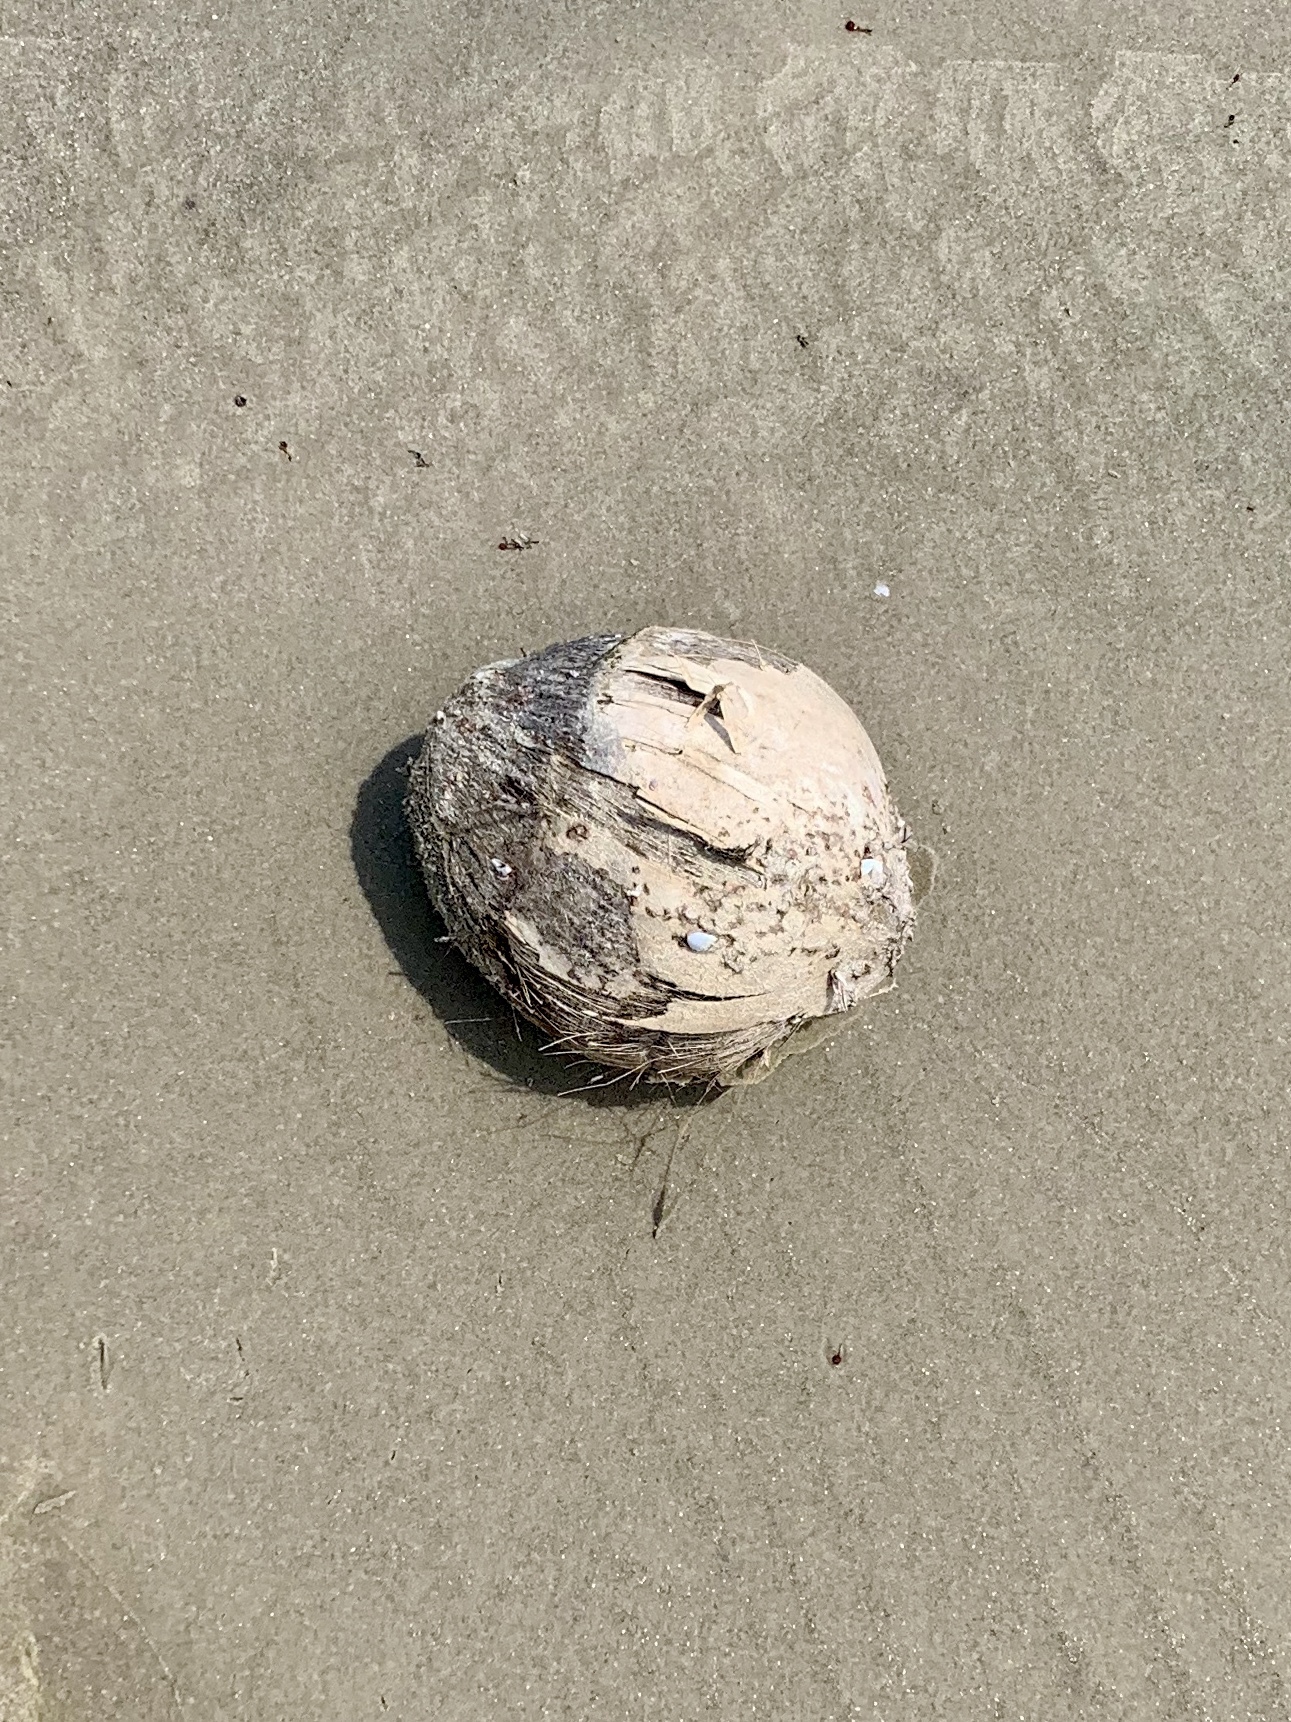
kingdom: Plantae
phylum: Tracheophyta
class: Liliopsida
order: Arecales
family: Arecaceae
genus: Cocos
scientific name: Cocos nucifera
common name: Coconut palm
